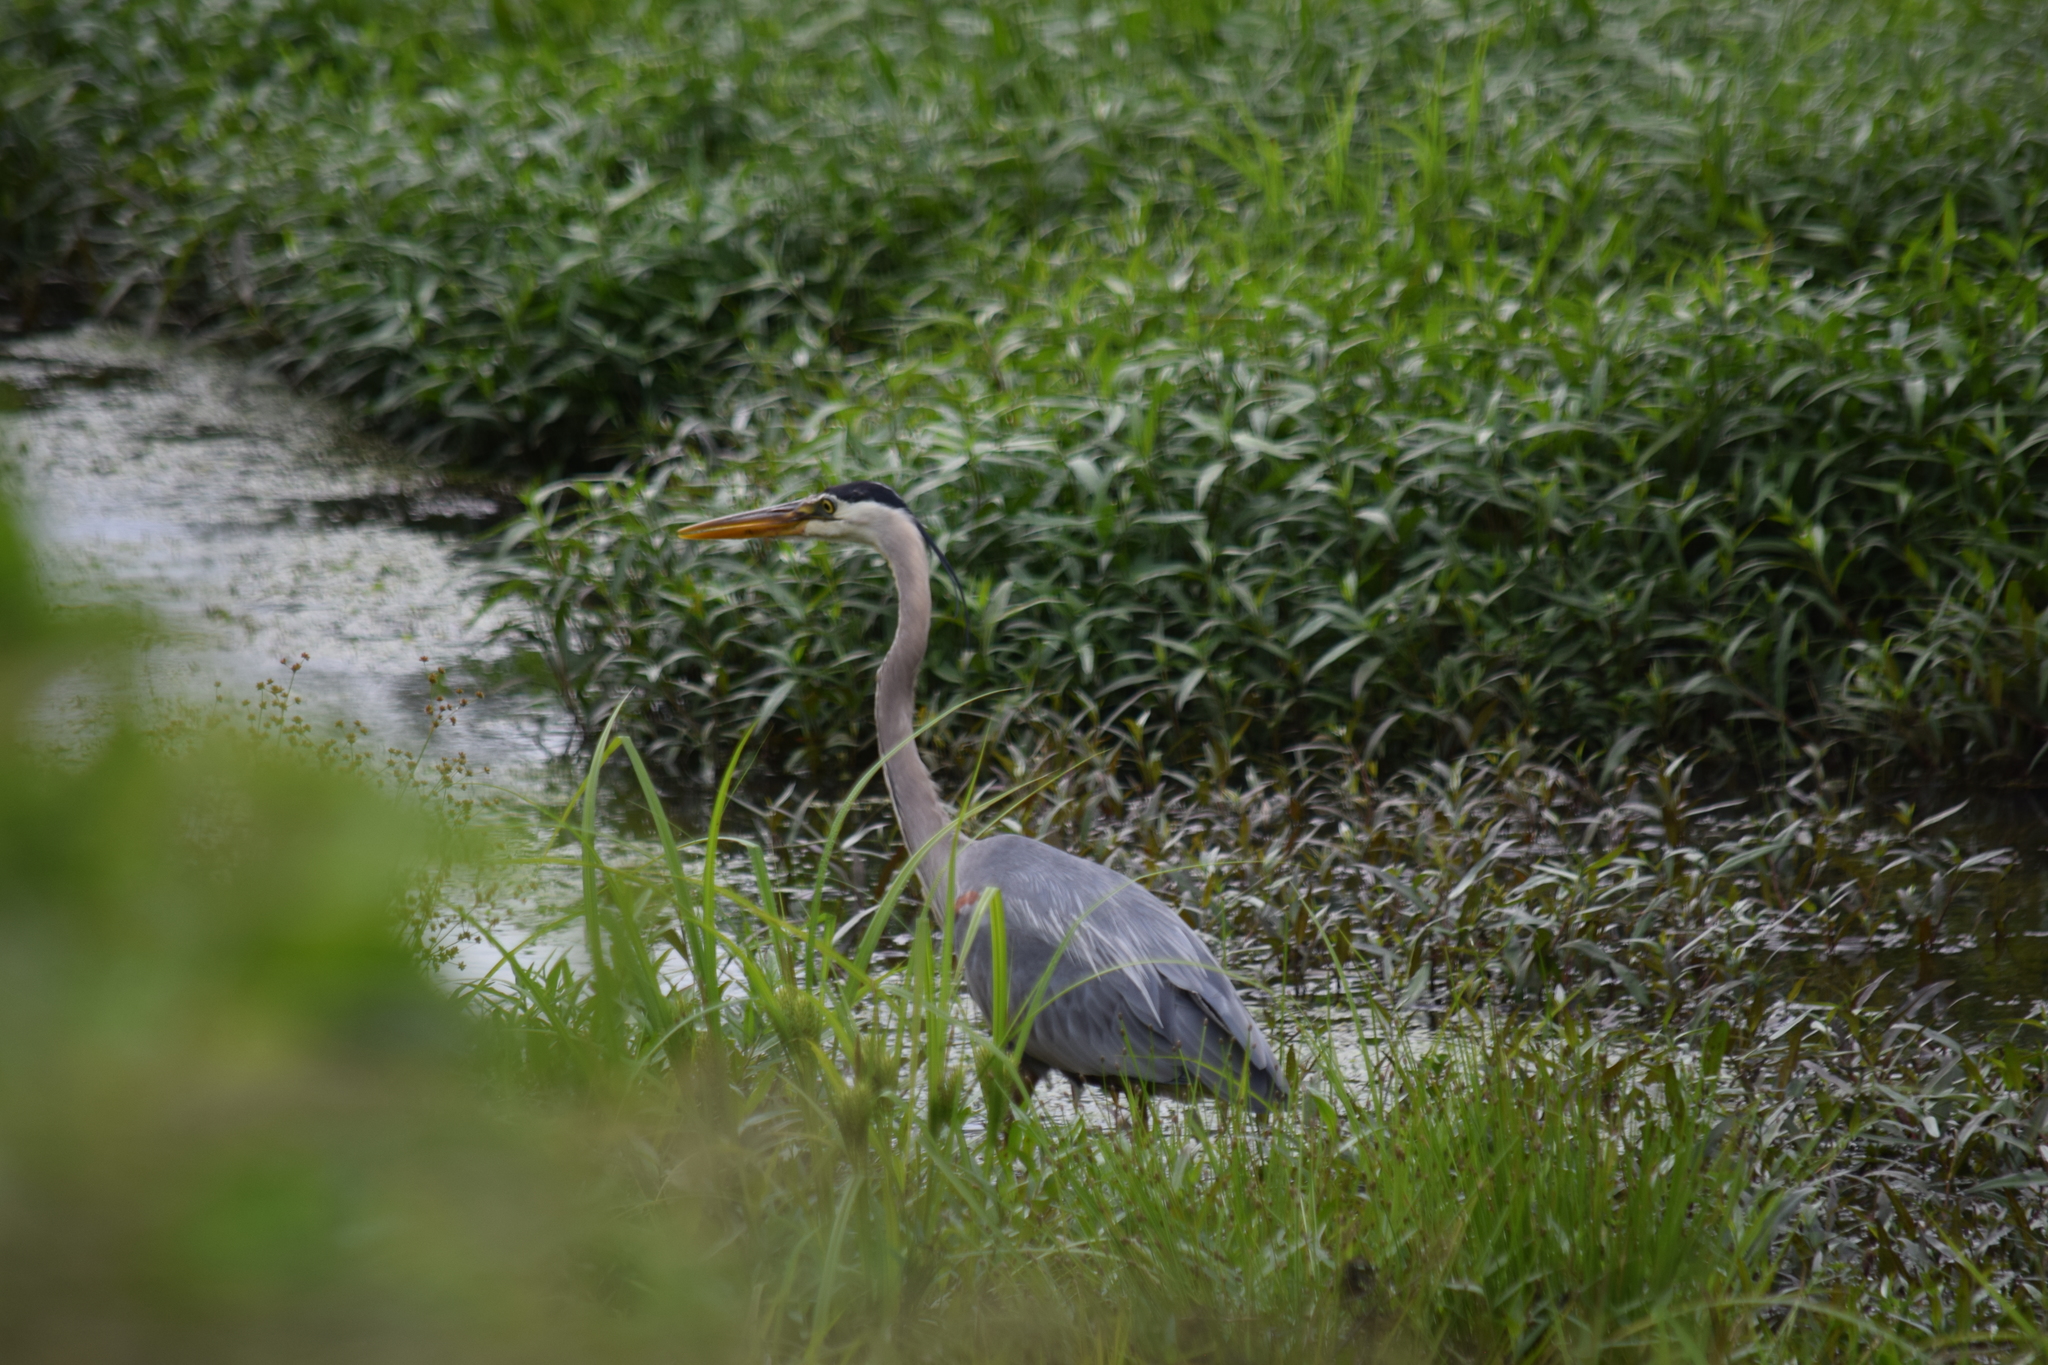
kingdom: Animalia
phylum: Chordata
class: Aves
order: Pelecaniformes
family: Ardeidae
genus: Ardea
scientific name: Ardea herodias
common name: Great blue heron
